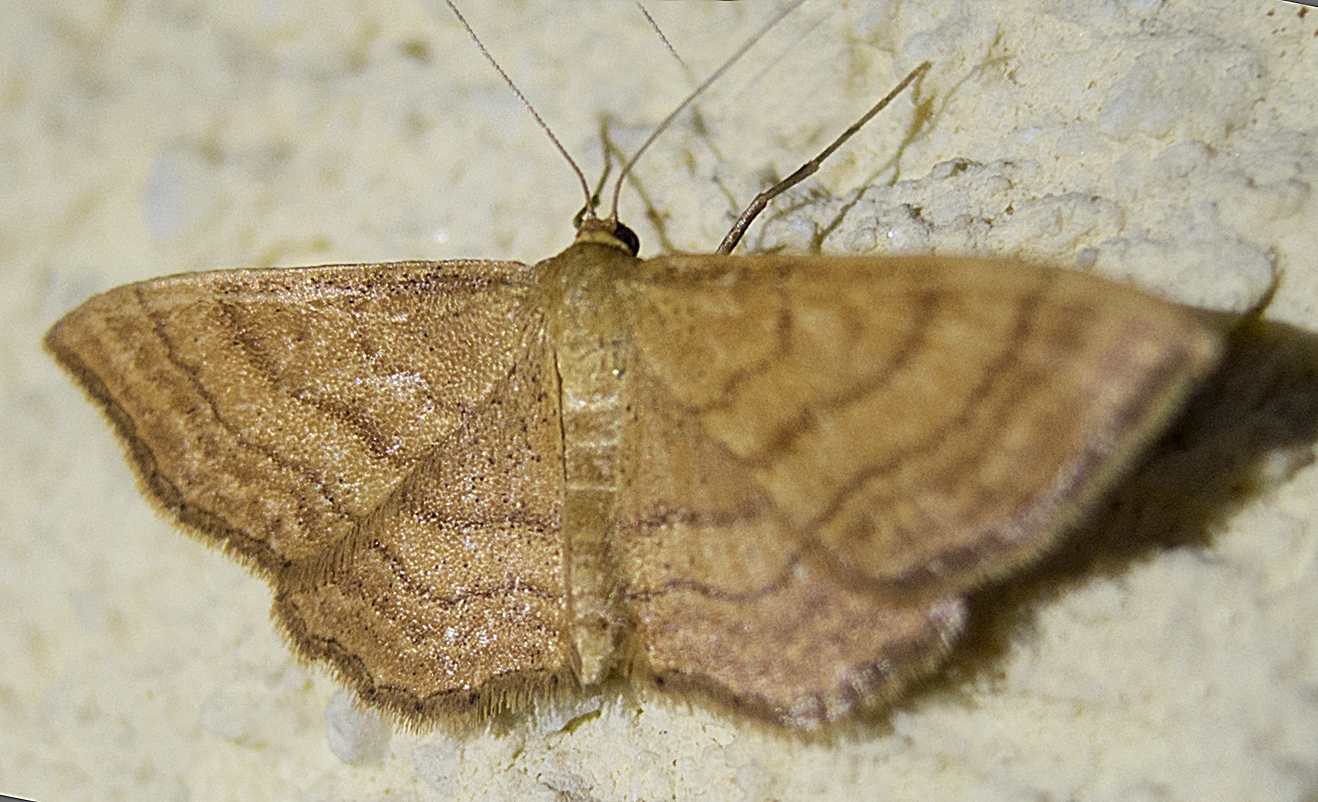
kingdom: Animalia
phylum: Arthropoda
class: Insecta
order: Lepidoptera
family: Geometridae
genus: Idaea
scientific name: Idaea ochrata
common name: Bright wave
